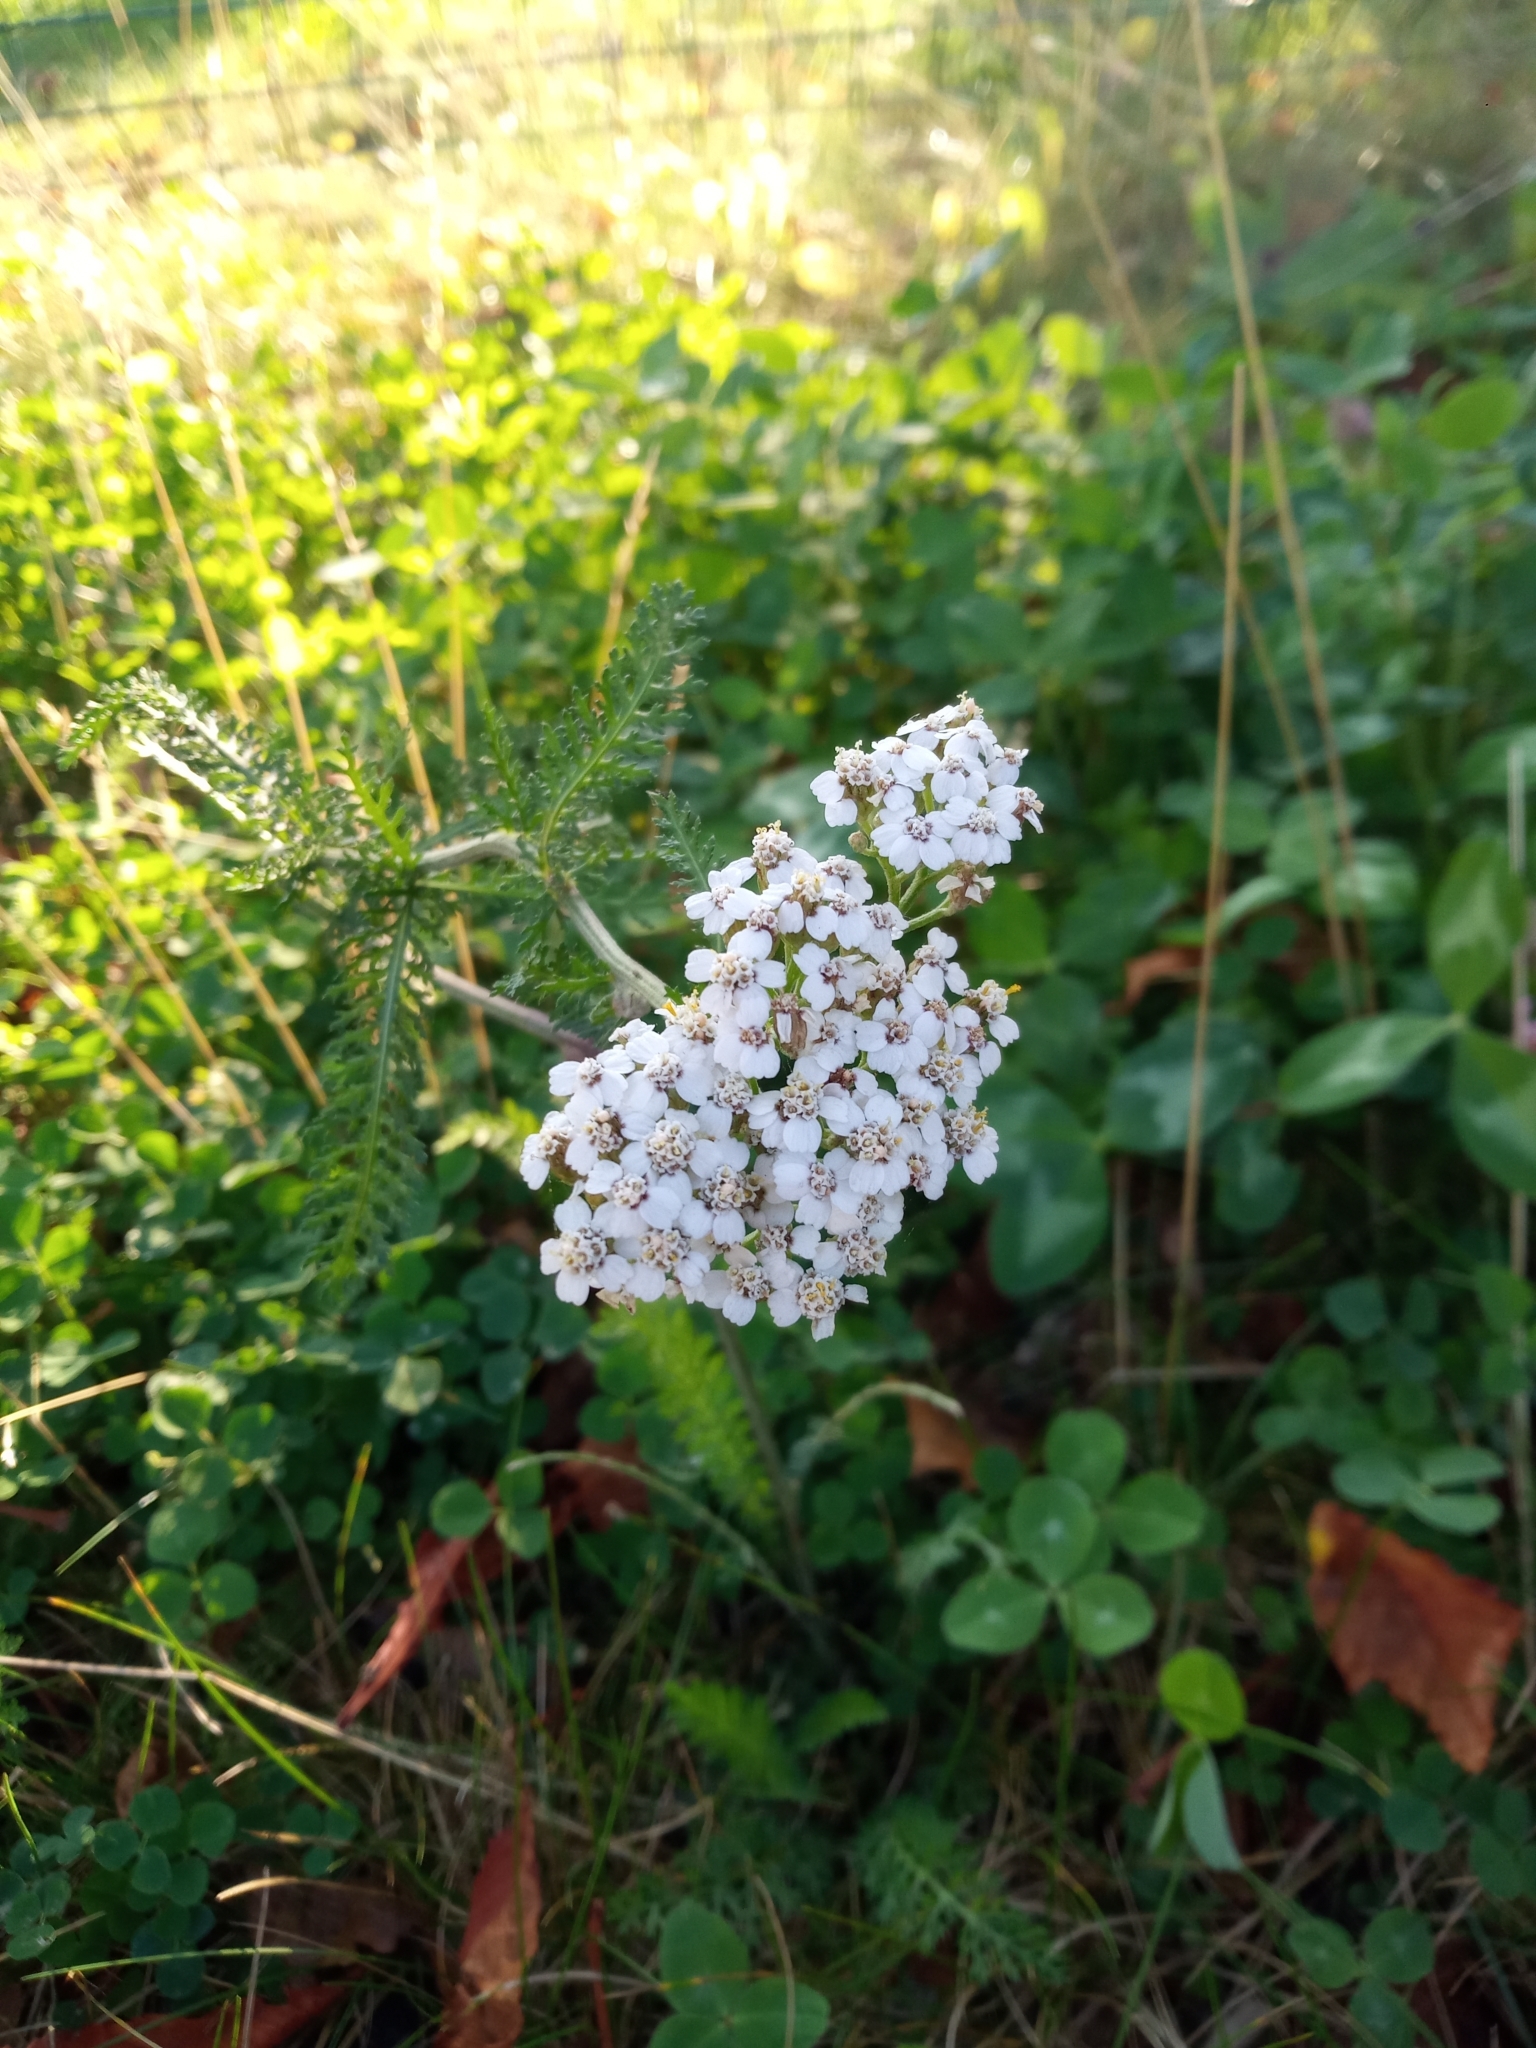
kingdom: Plantae
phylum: Tracheophyta
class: Magnoliopsida
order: Asterales
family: Asteraceae
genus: Achillea
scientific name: Achillea millefolium
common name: Yarrow
